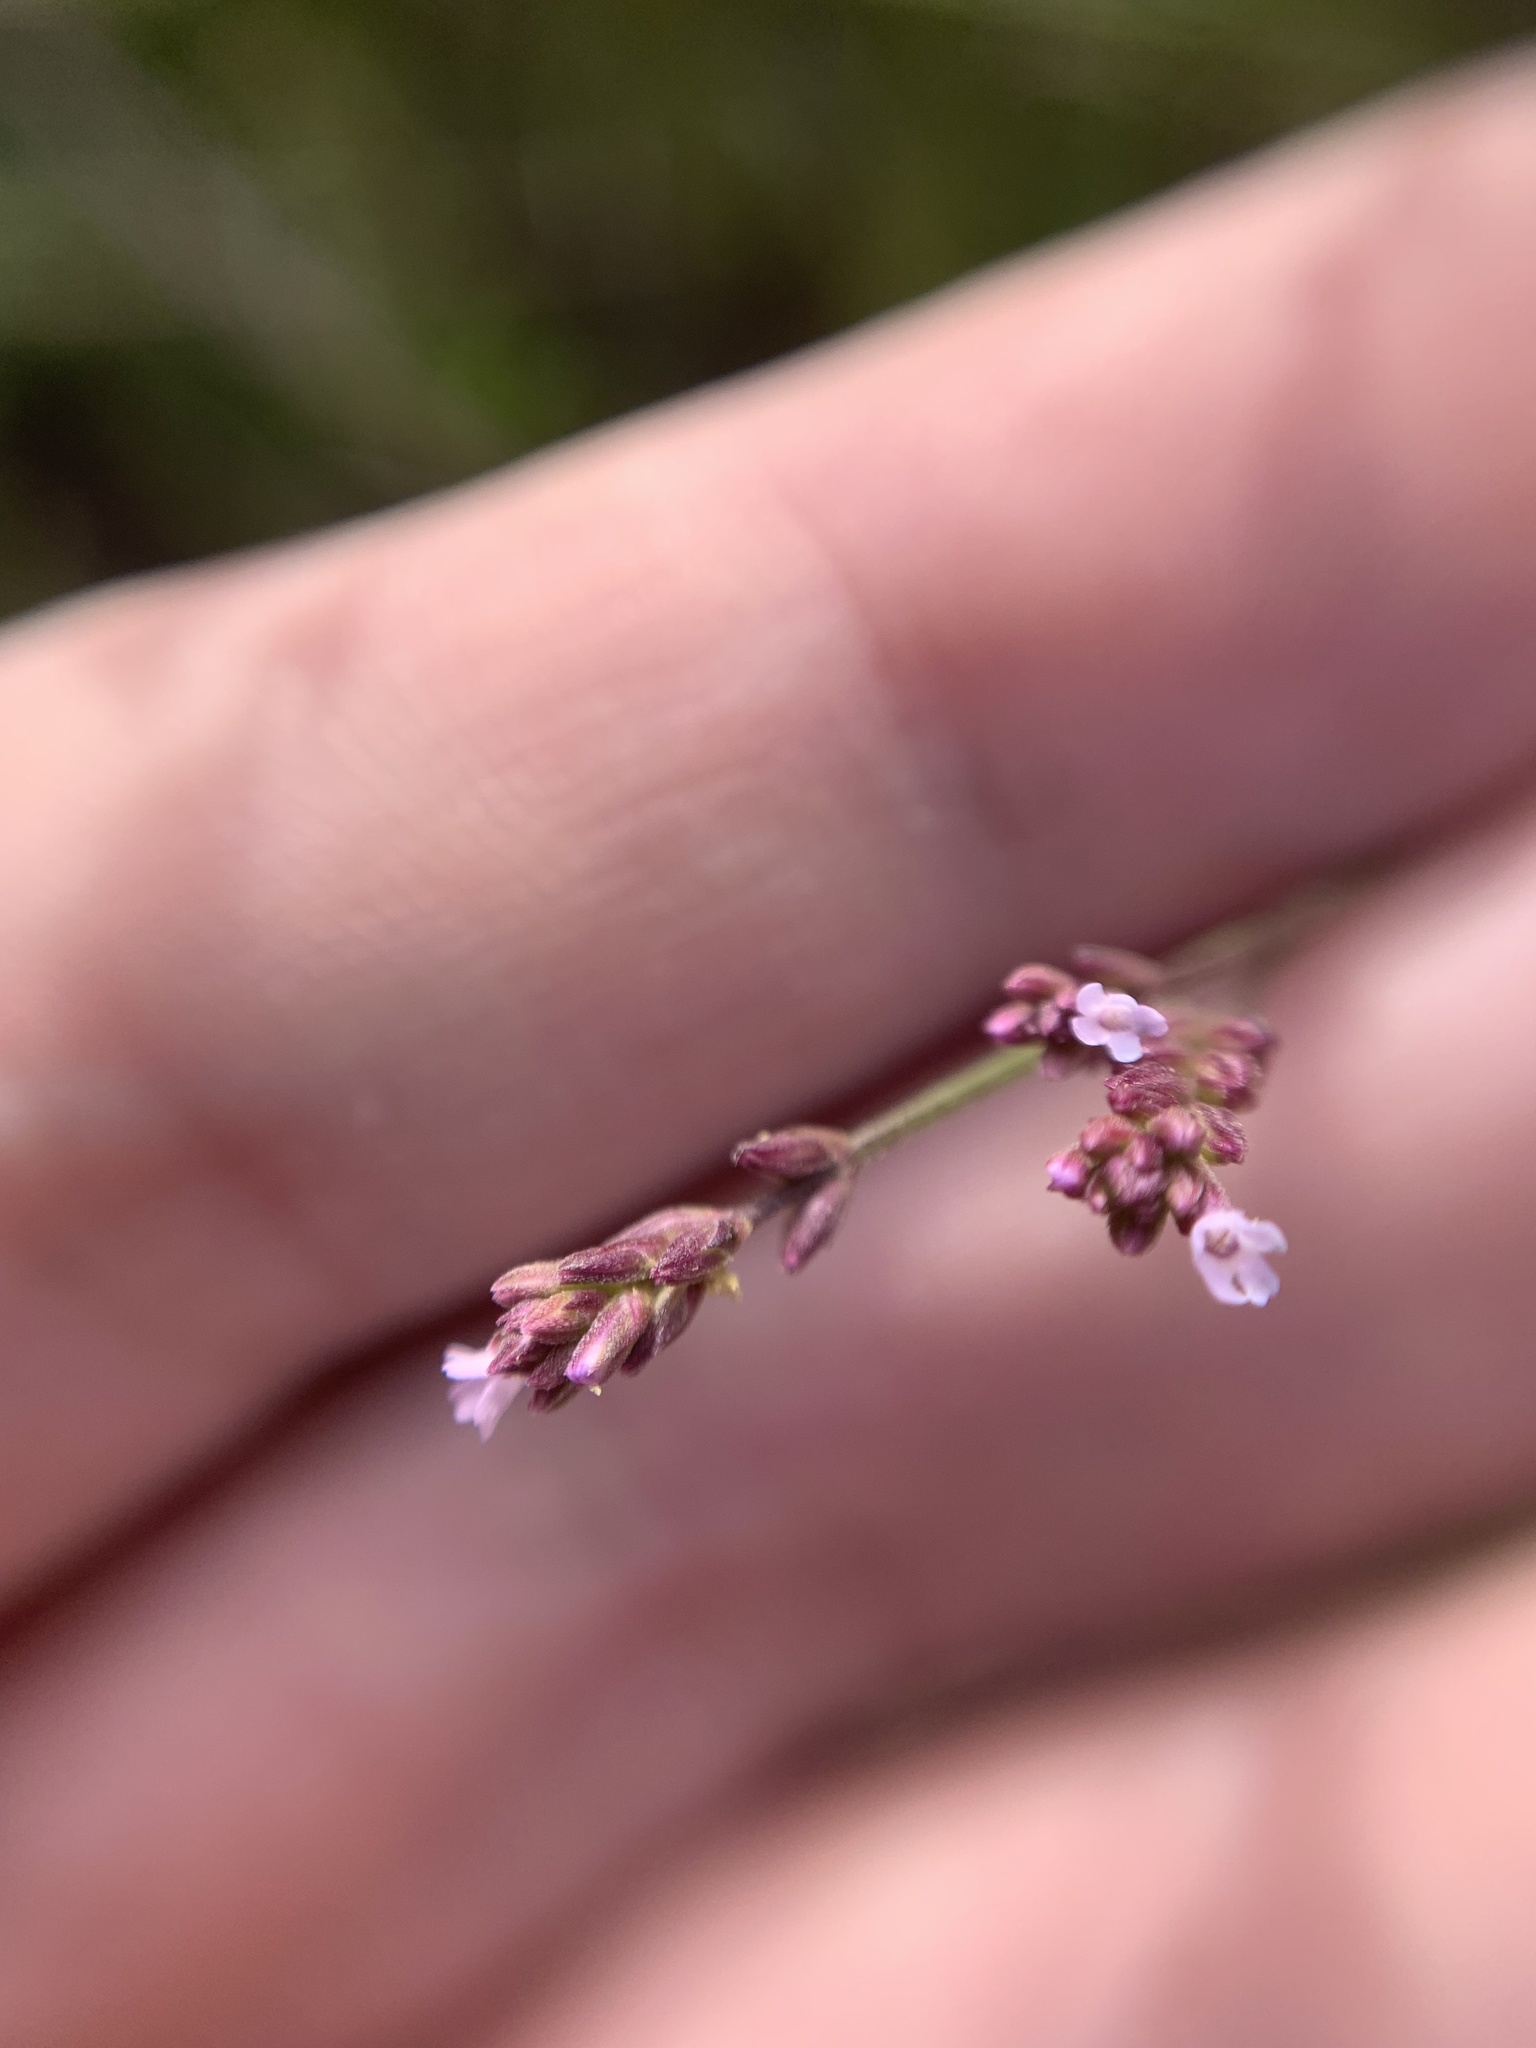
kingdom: Plantae
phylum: Tracheophyta
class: Magnoliopsida
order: Lamiales
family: Verbenaceae
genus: Verbena
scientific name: Verbena litoralis
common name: Seashore vervain
